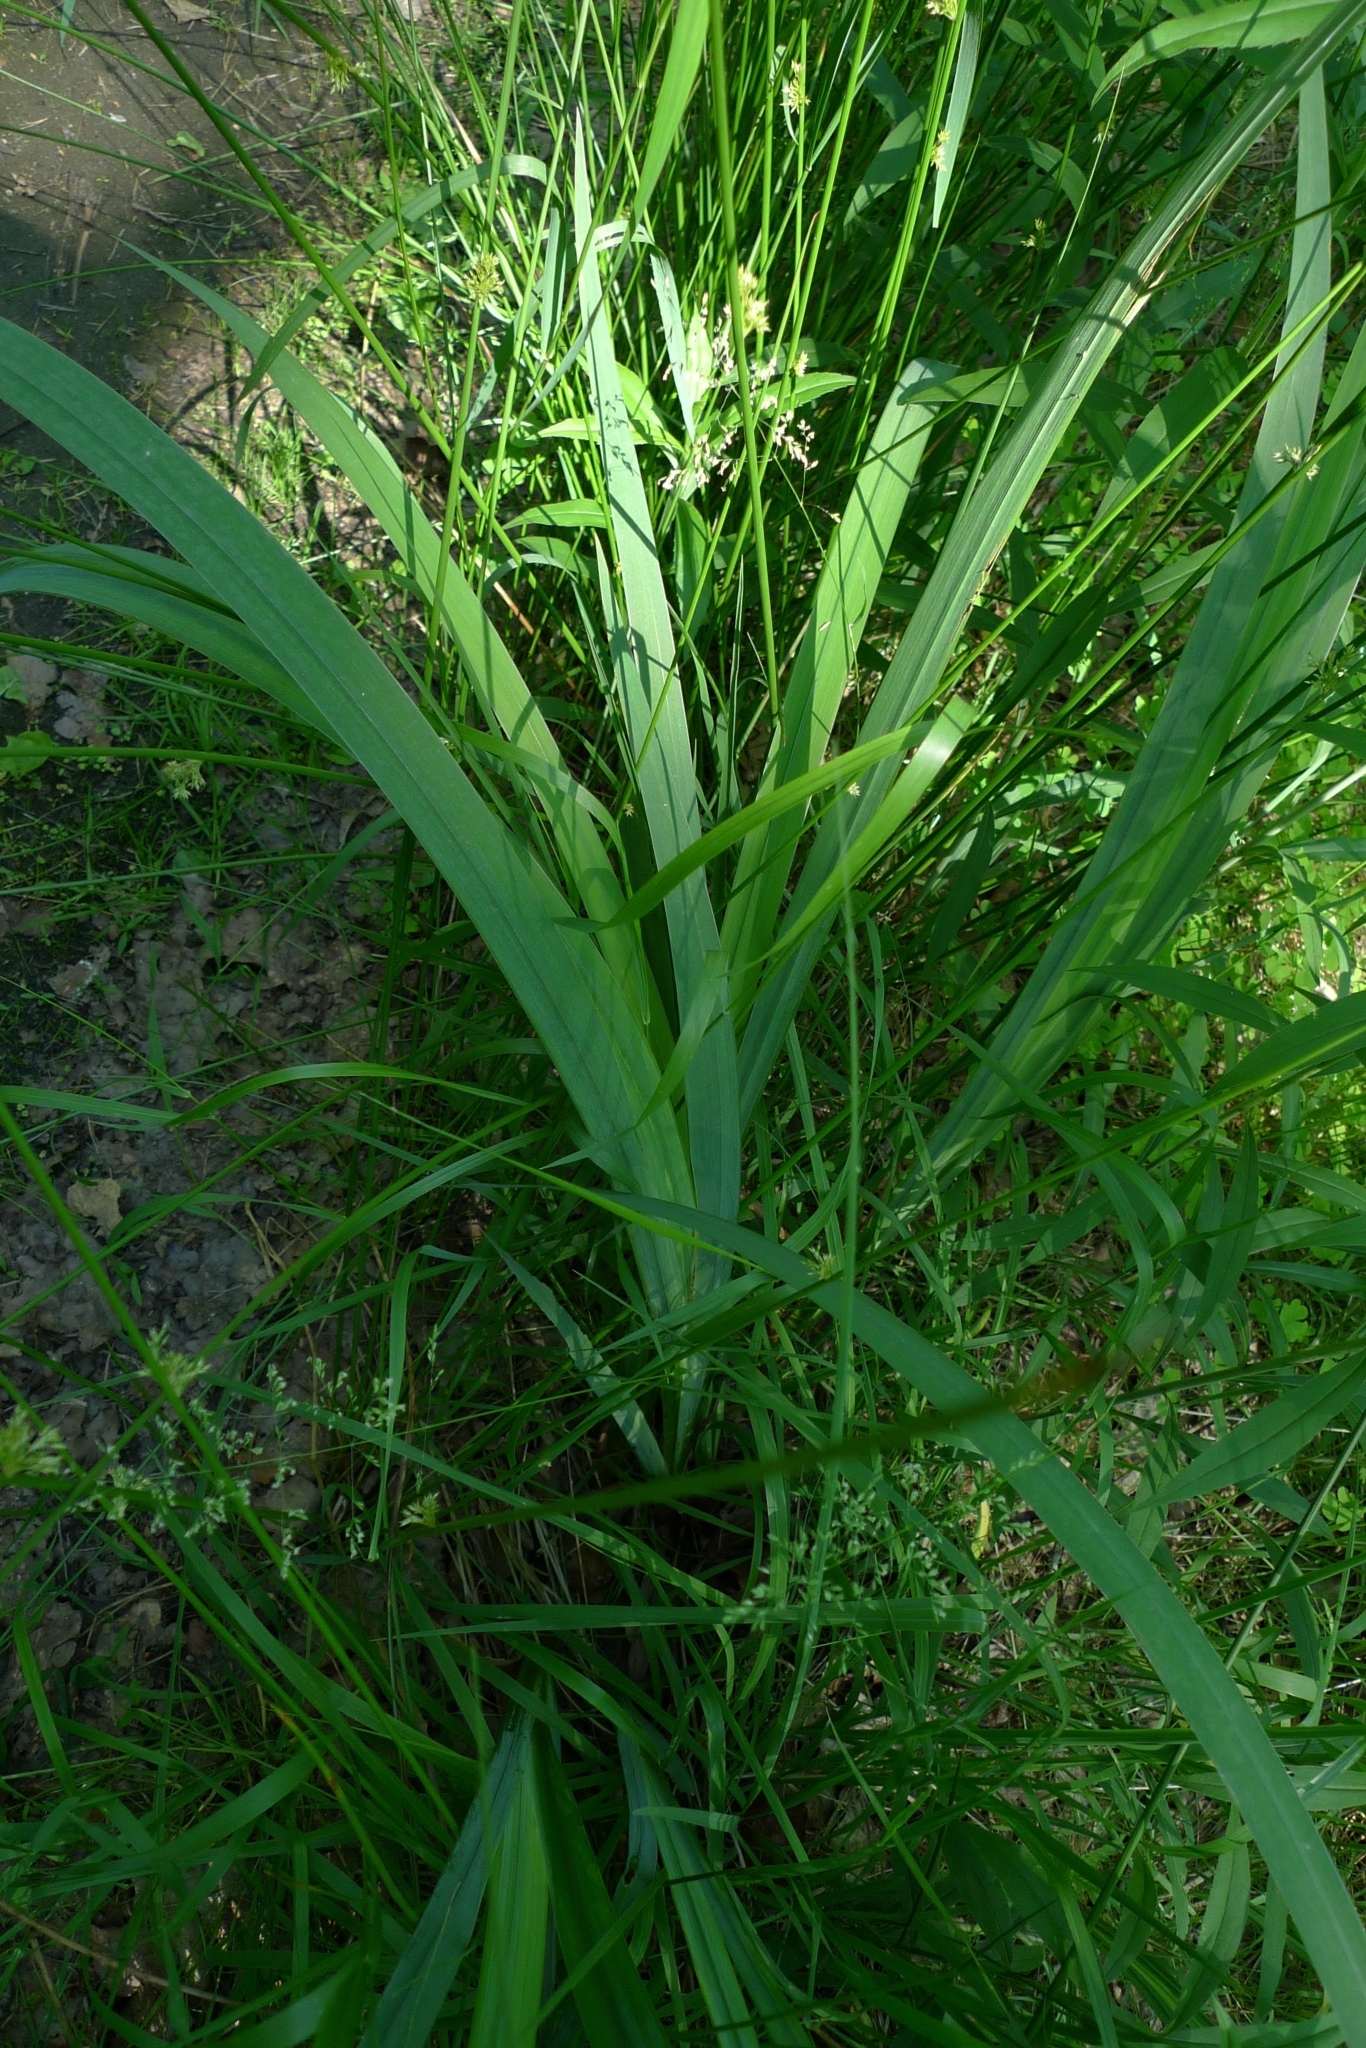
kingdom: Plantae
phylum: Tracheophyta
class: Liliopsida
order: Asparagales
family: Iridaceae
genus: Iris
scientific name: Iris pseudacorus
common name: Yellow flag
